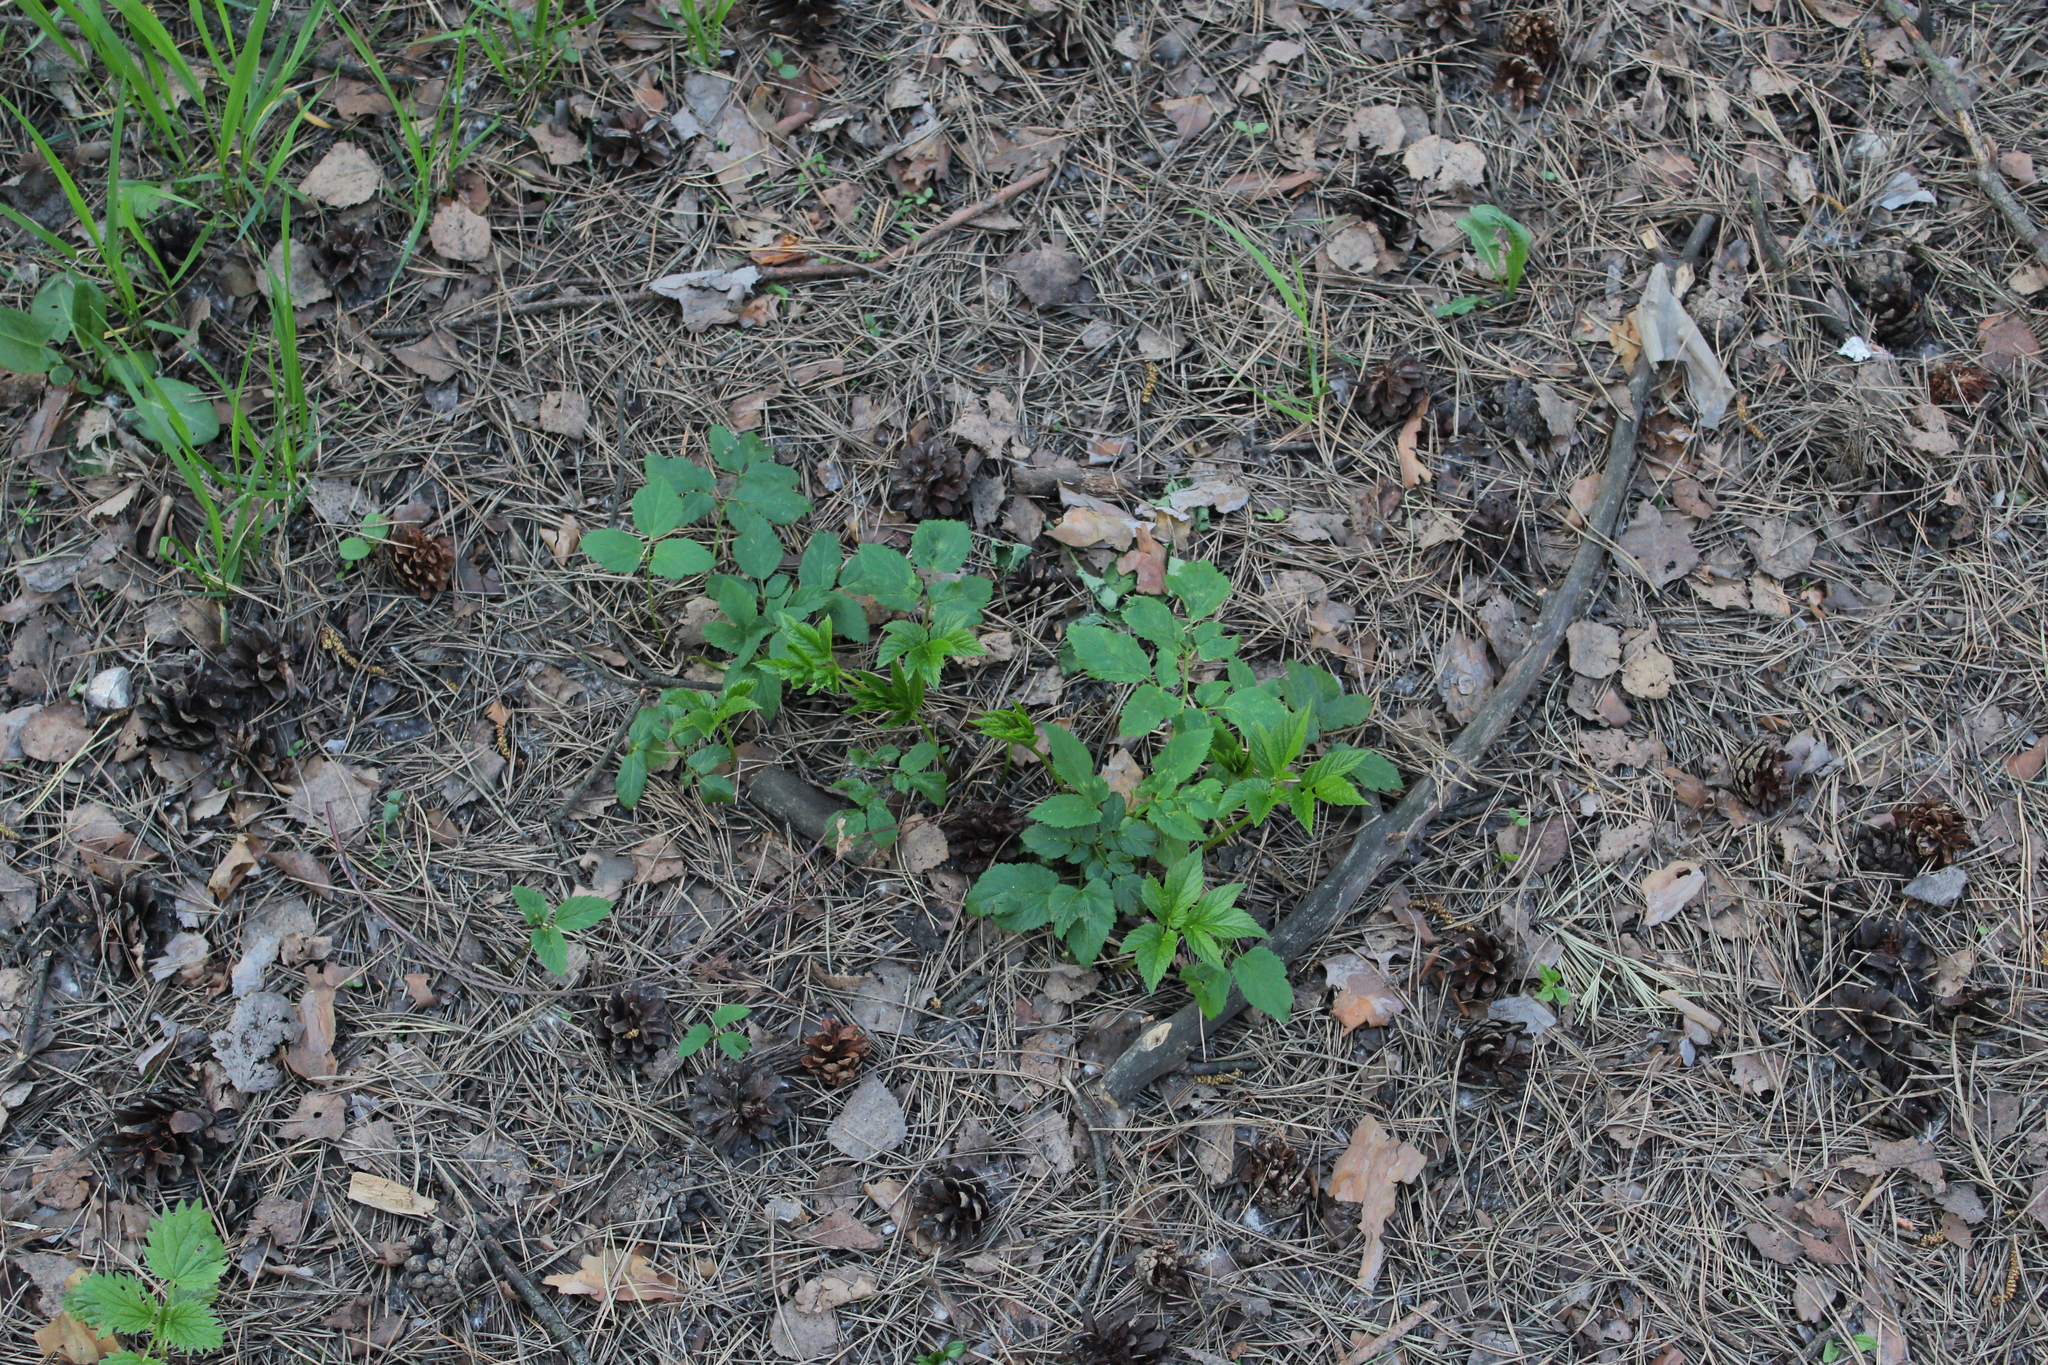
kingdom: Plantae
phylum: Tracheophyta
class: Magnoliopsida
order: Apiales
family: Apiaceae
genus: Aegopodium
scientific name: Aegopodium podagraria
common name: Ground-elder
